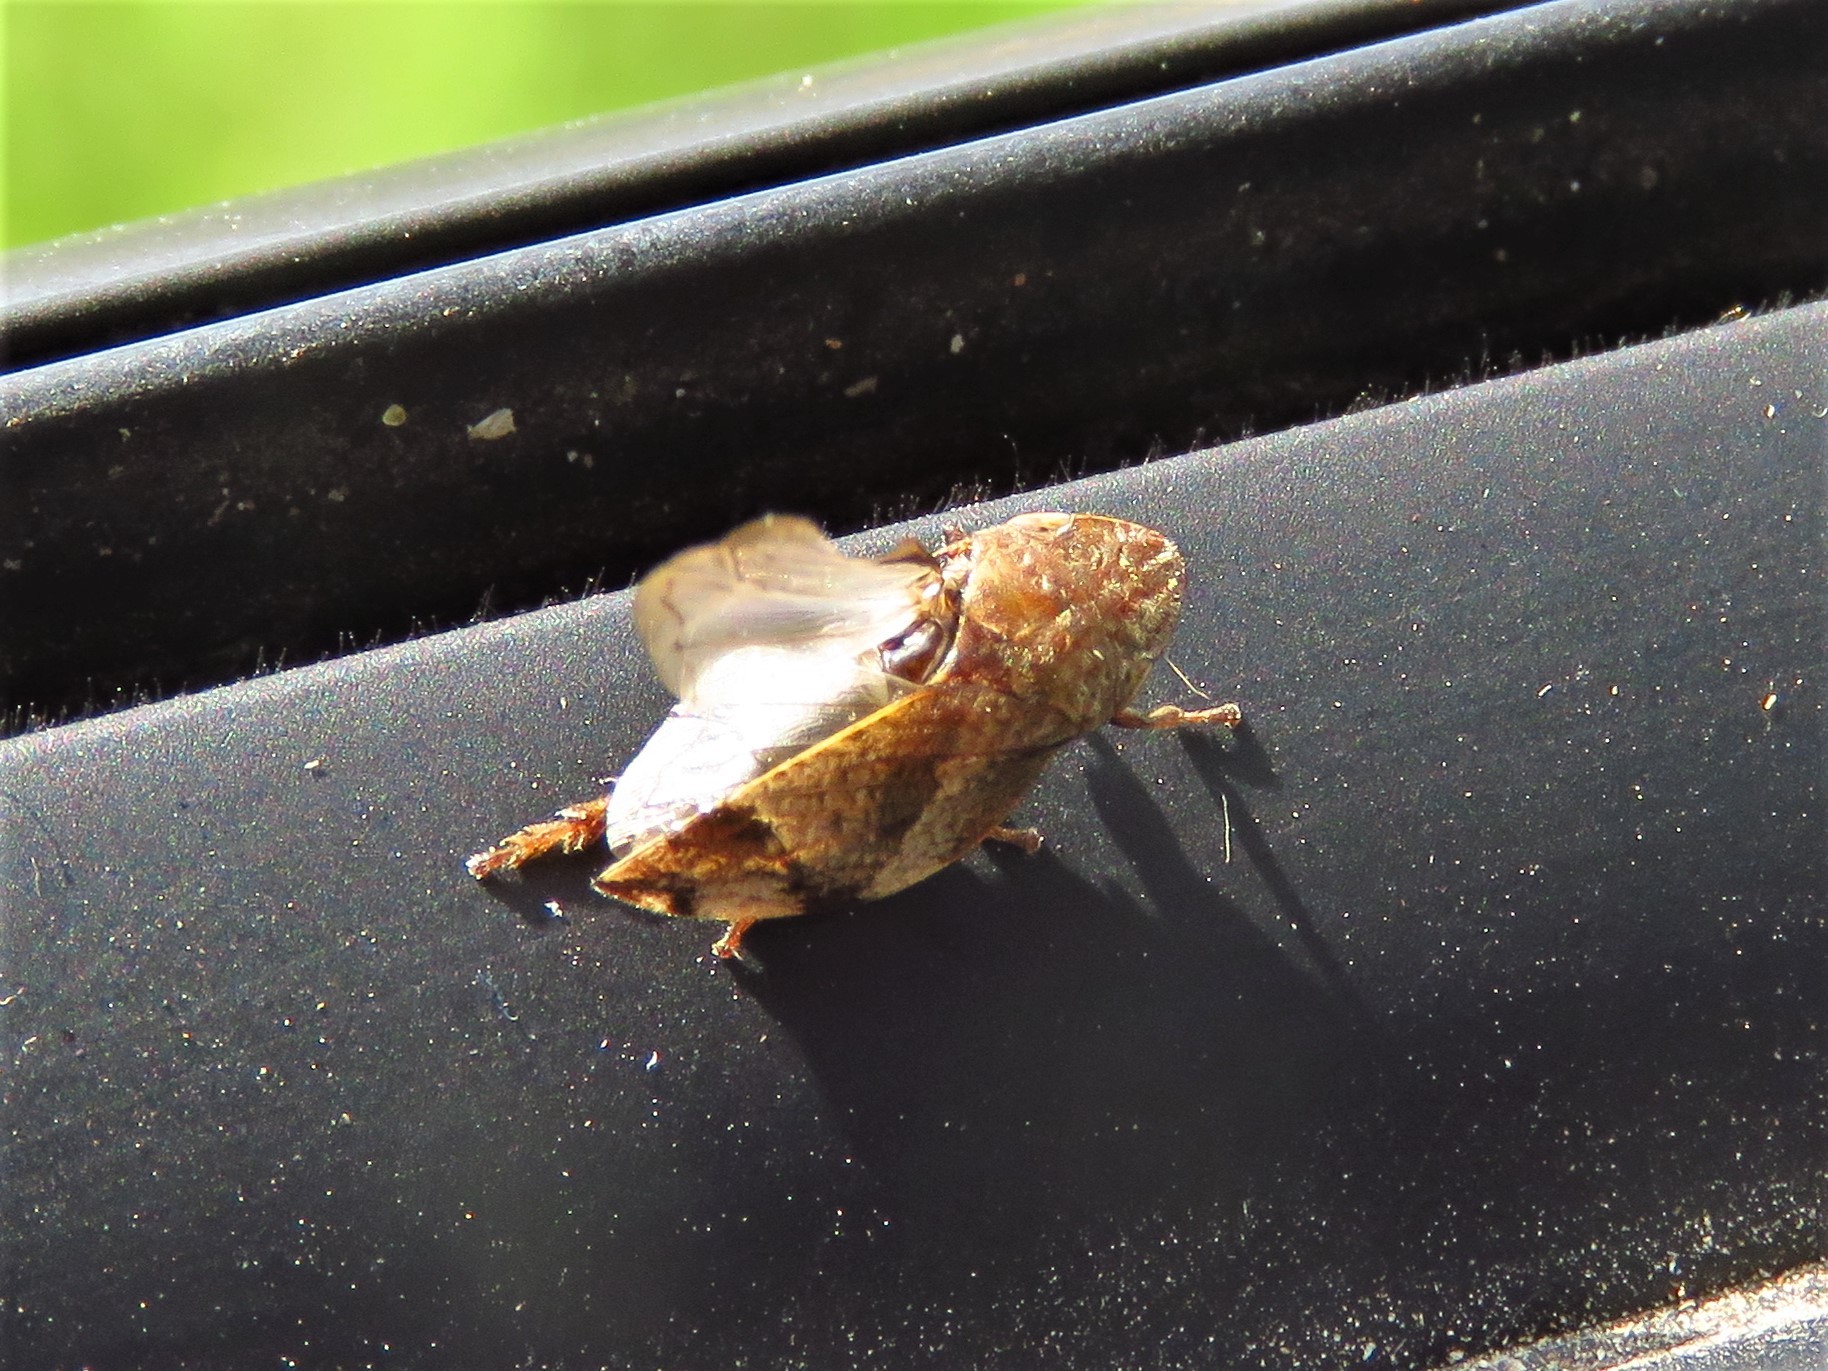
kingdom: Animalia
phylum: Arthropoda
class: Insecta
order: Hemiptera
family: Aphrophoridae
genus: Lepyronia
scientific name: Lepyronia quadrangularis
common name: Diamond-backed spittlebug
